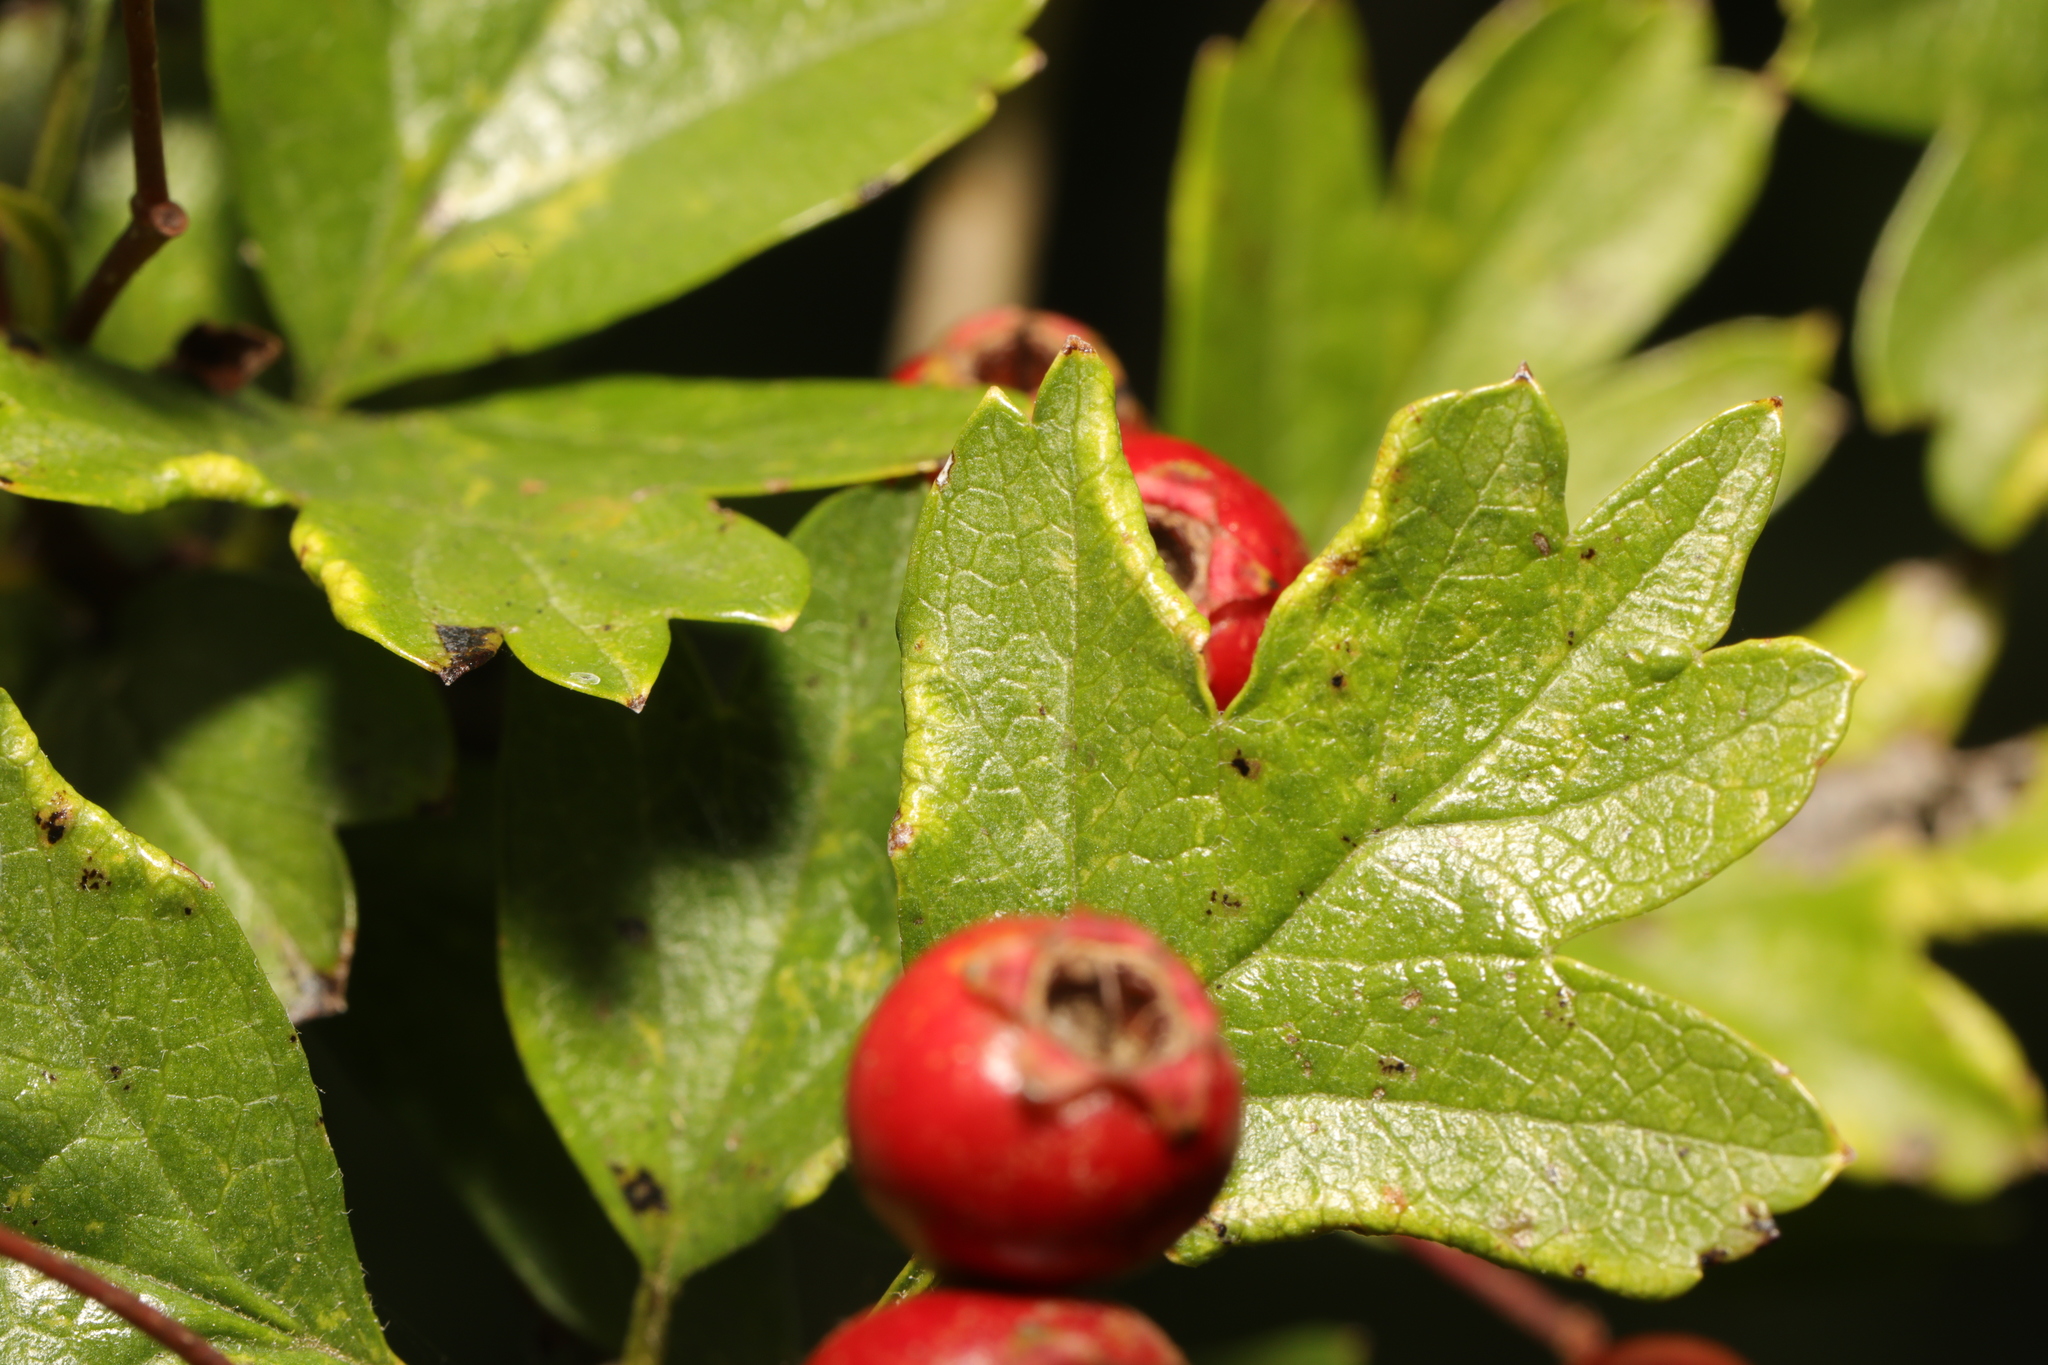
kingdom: Plantae
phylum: Tracheophyta
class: Magnoliopsida
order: Rosales
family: Rosaceae
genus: Crataegus
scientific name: Crataegus monogyna
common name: Hawthorn
